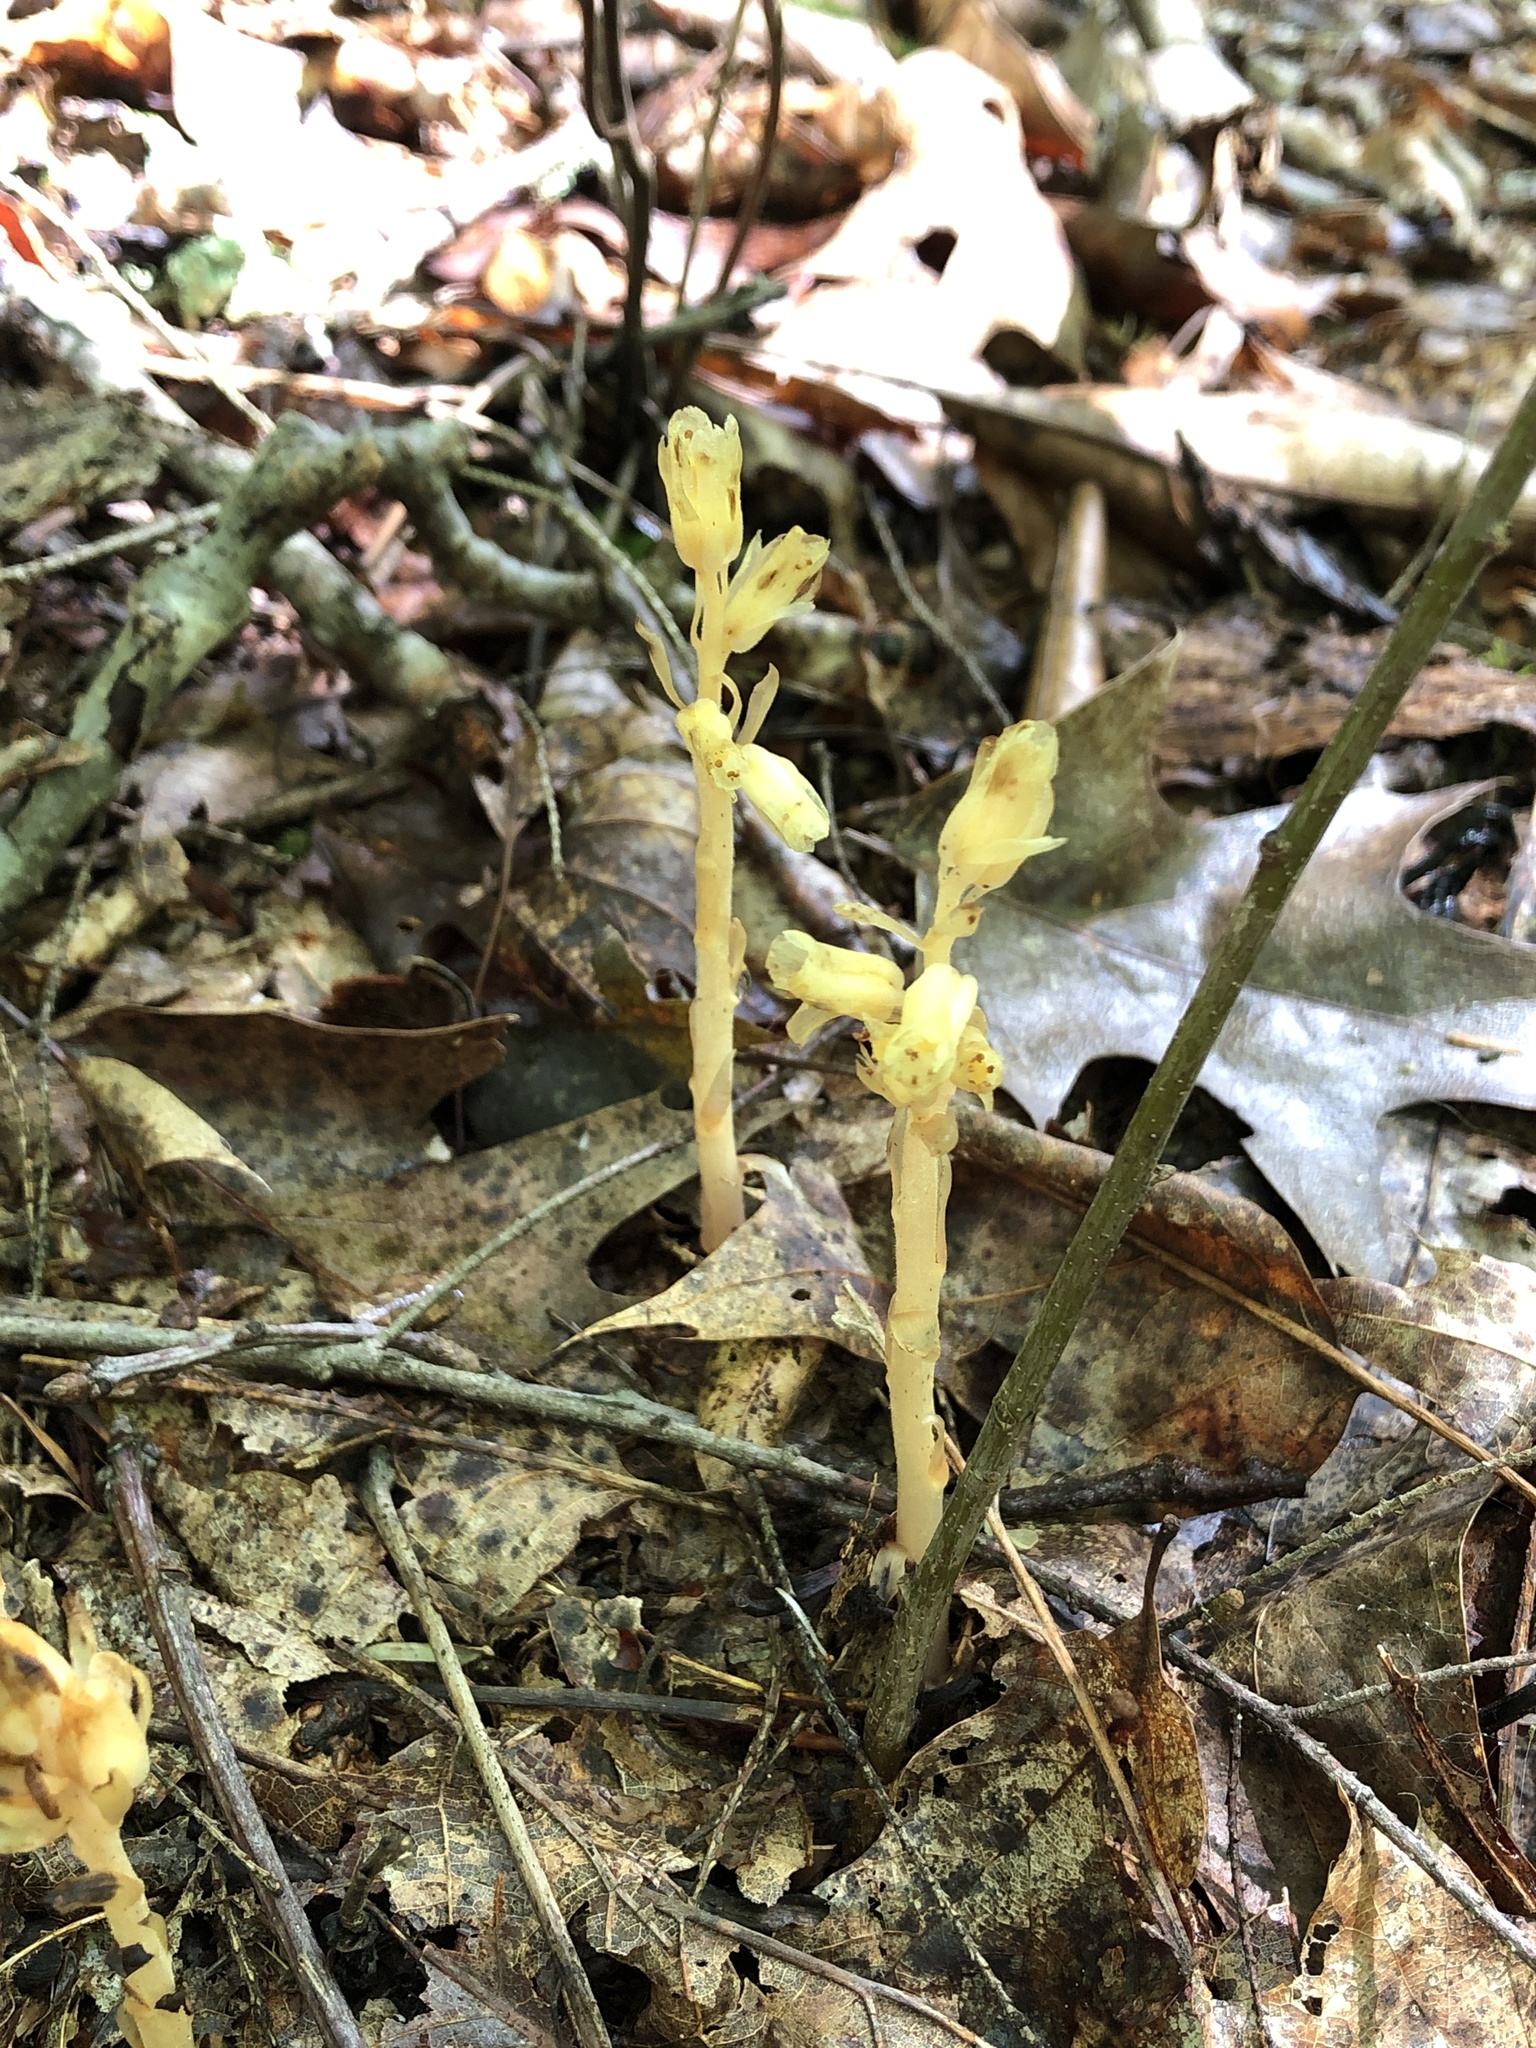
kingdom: Plantae
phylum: Tracheophyta
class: Magnoliopsida
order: Ericales
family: Ericaceae
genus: Hypopitys
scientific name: Hypopitys monotropa
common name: Yellow bird's-nest
